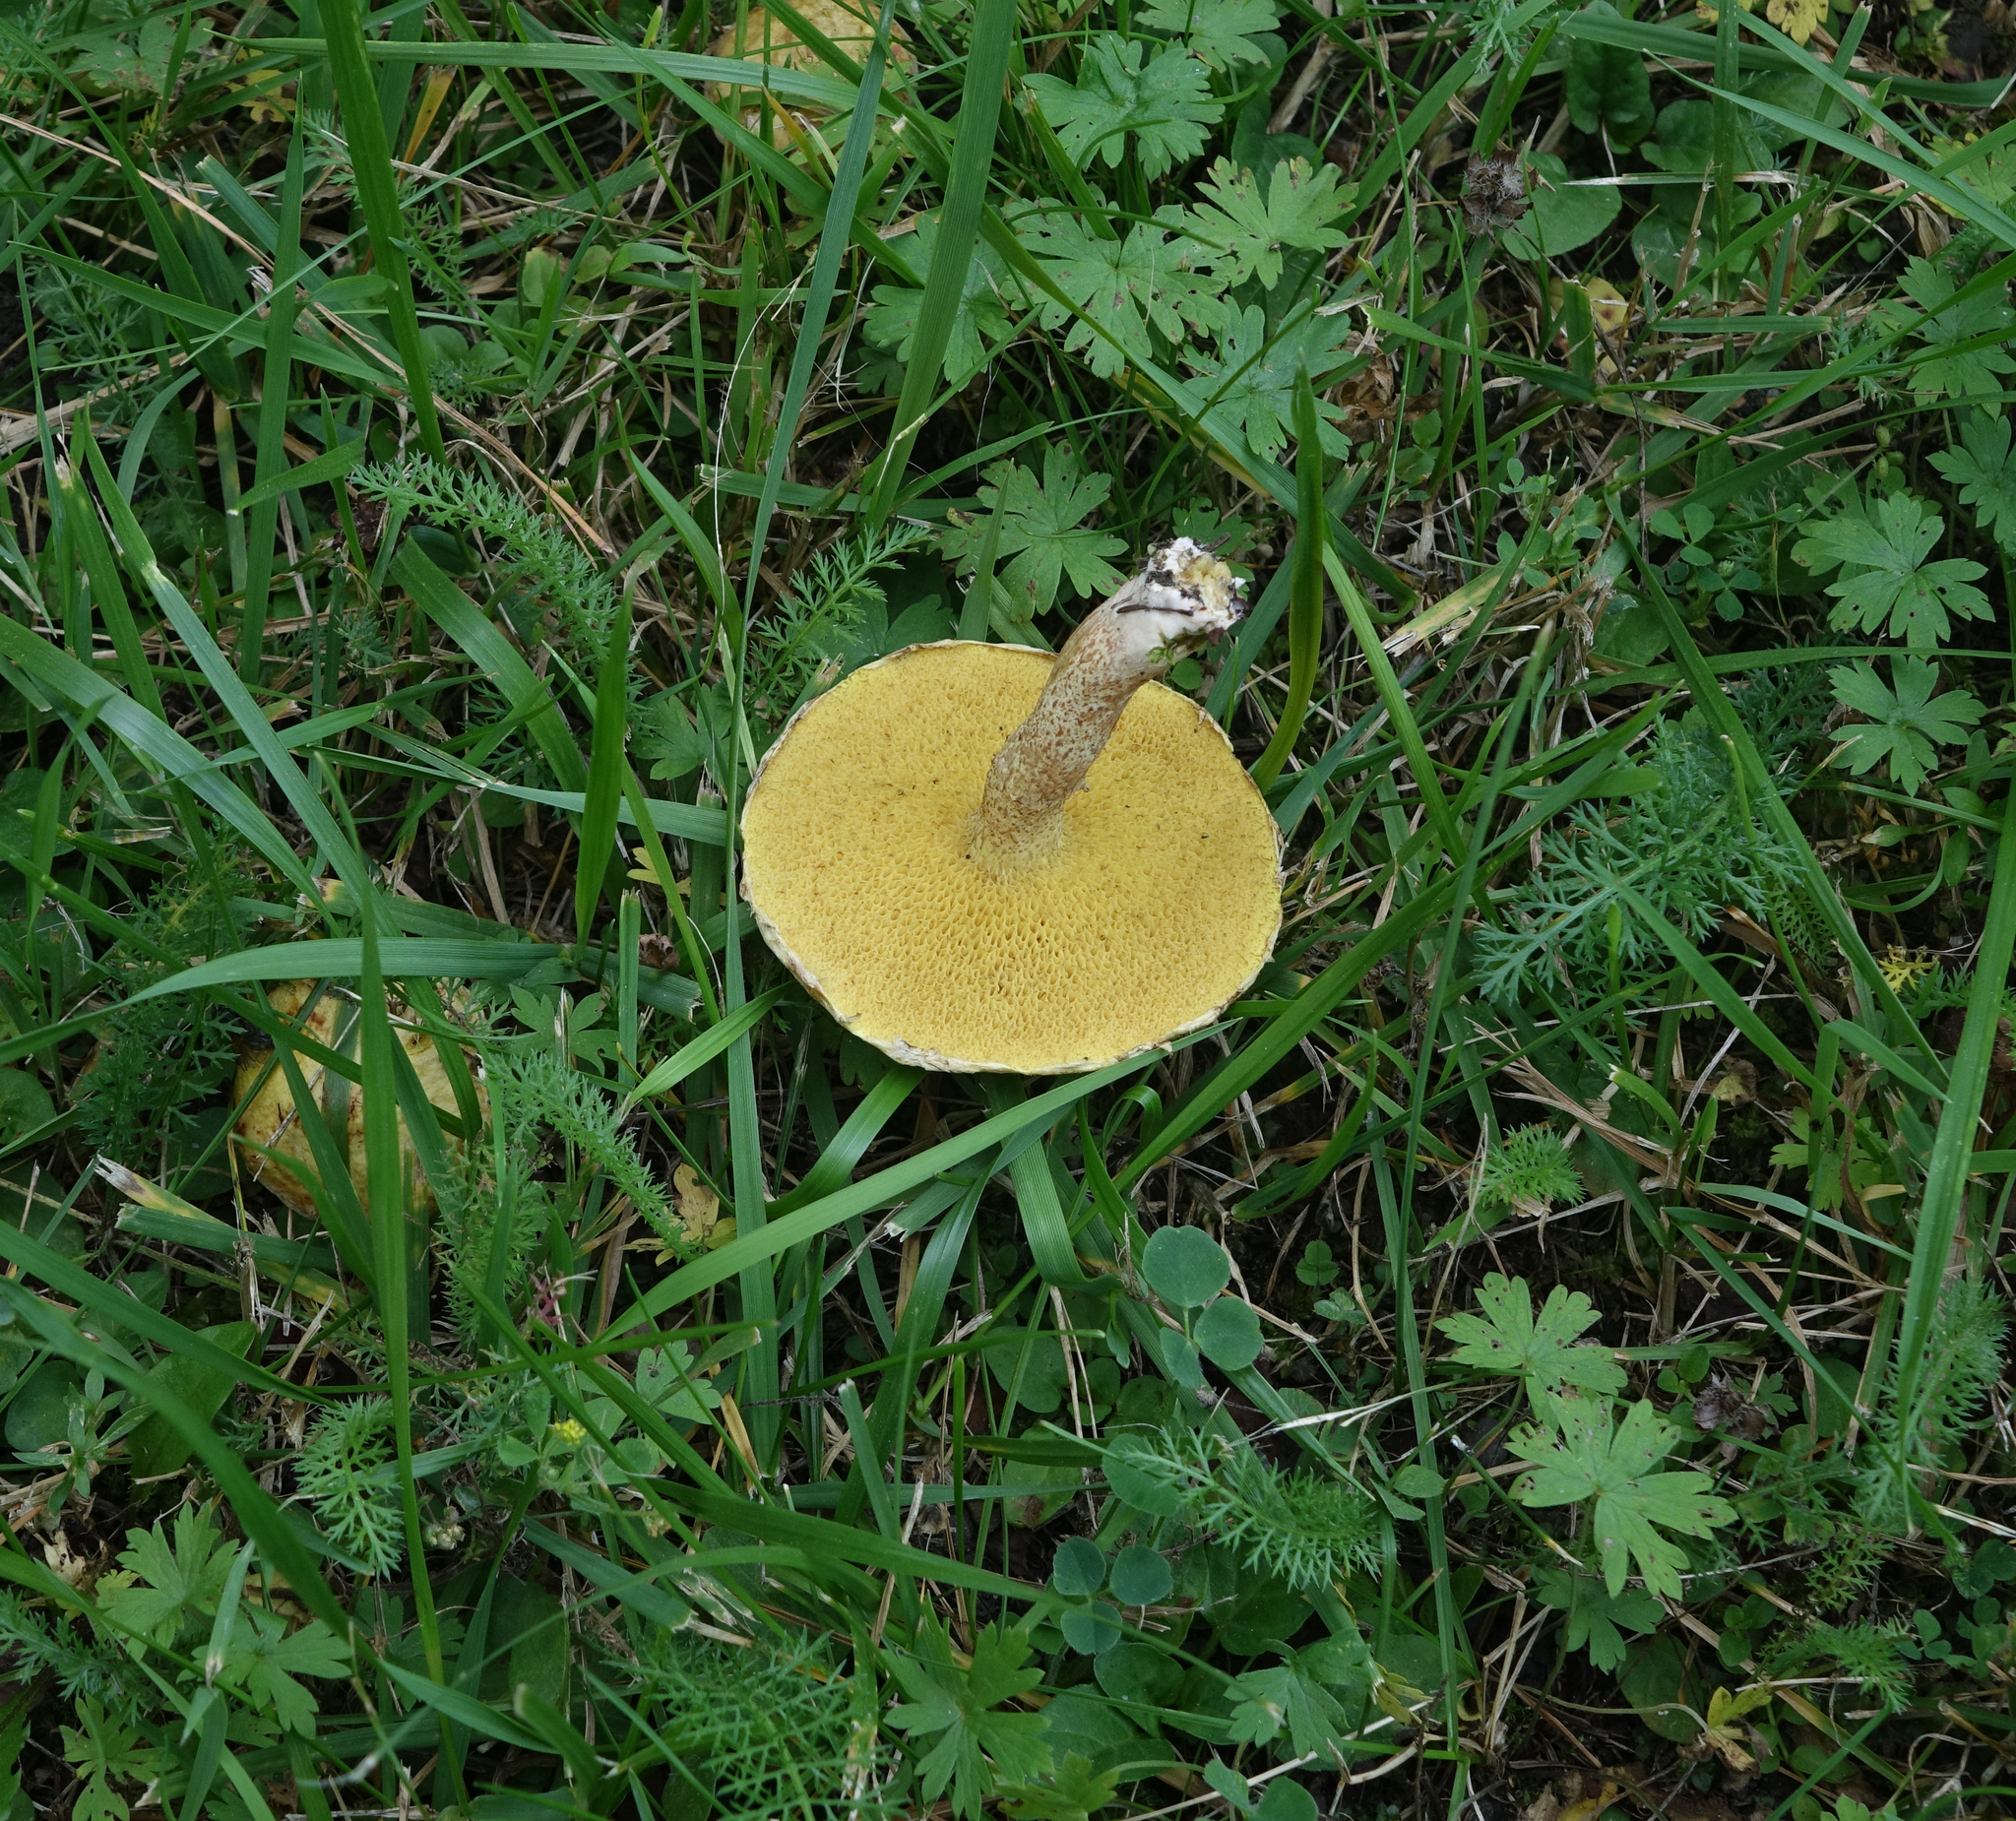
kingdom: Fungi
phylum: Basidiomycota
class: Agaricomycetes
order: Boletales
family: Suillaceae
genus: Suillus
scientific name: Suillus americanus
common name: Chicken fat mushroom
